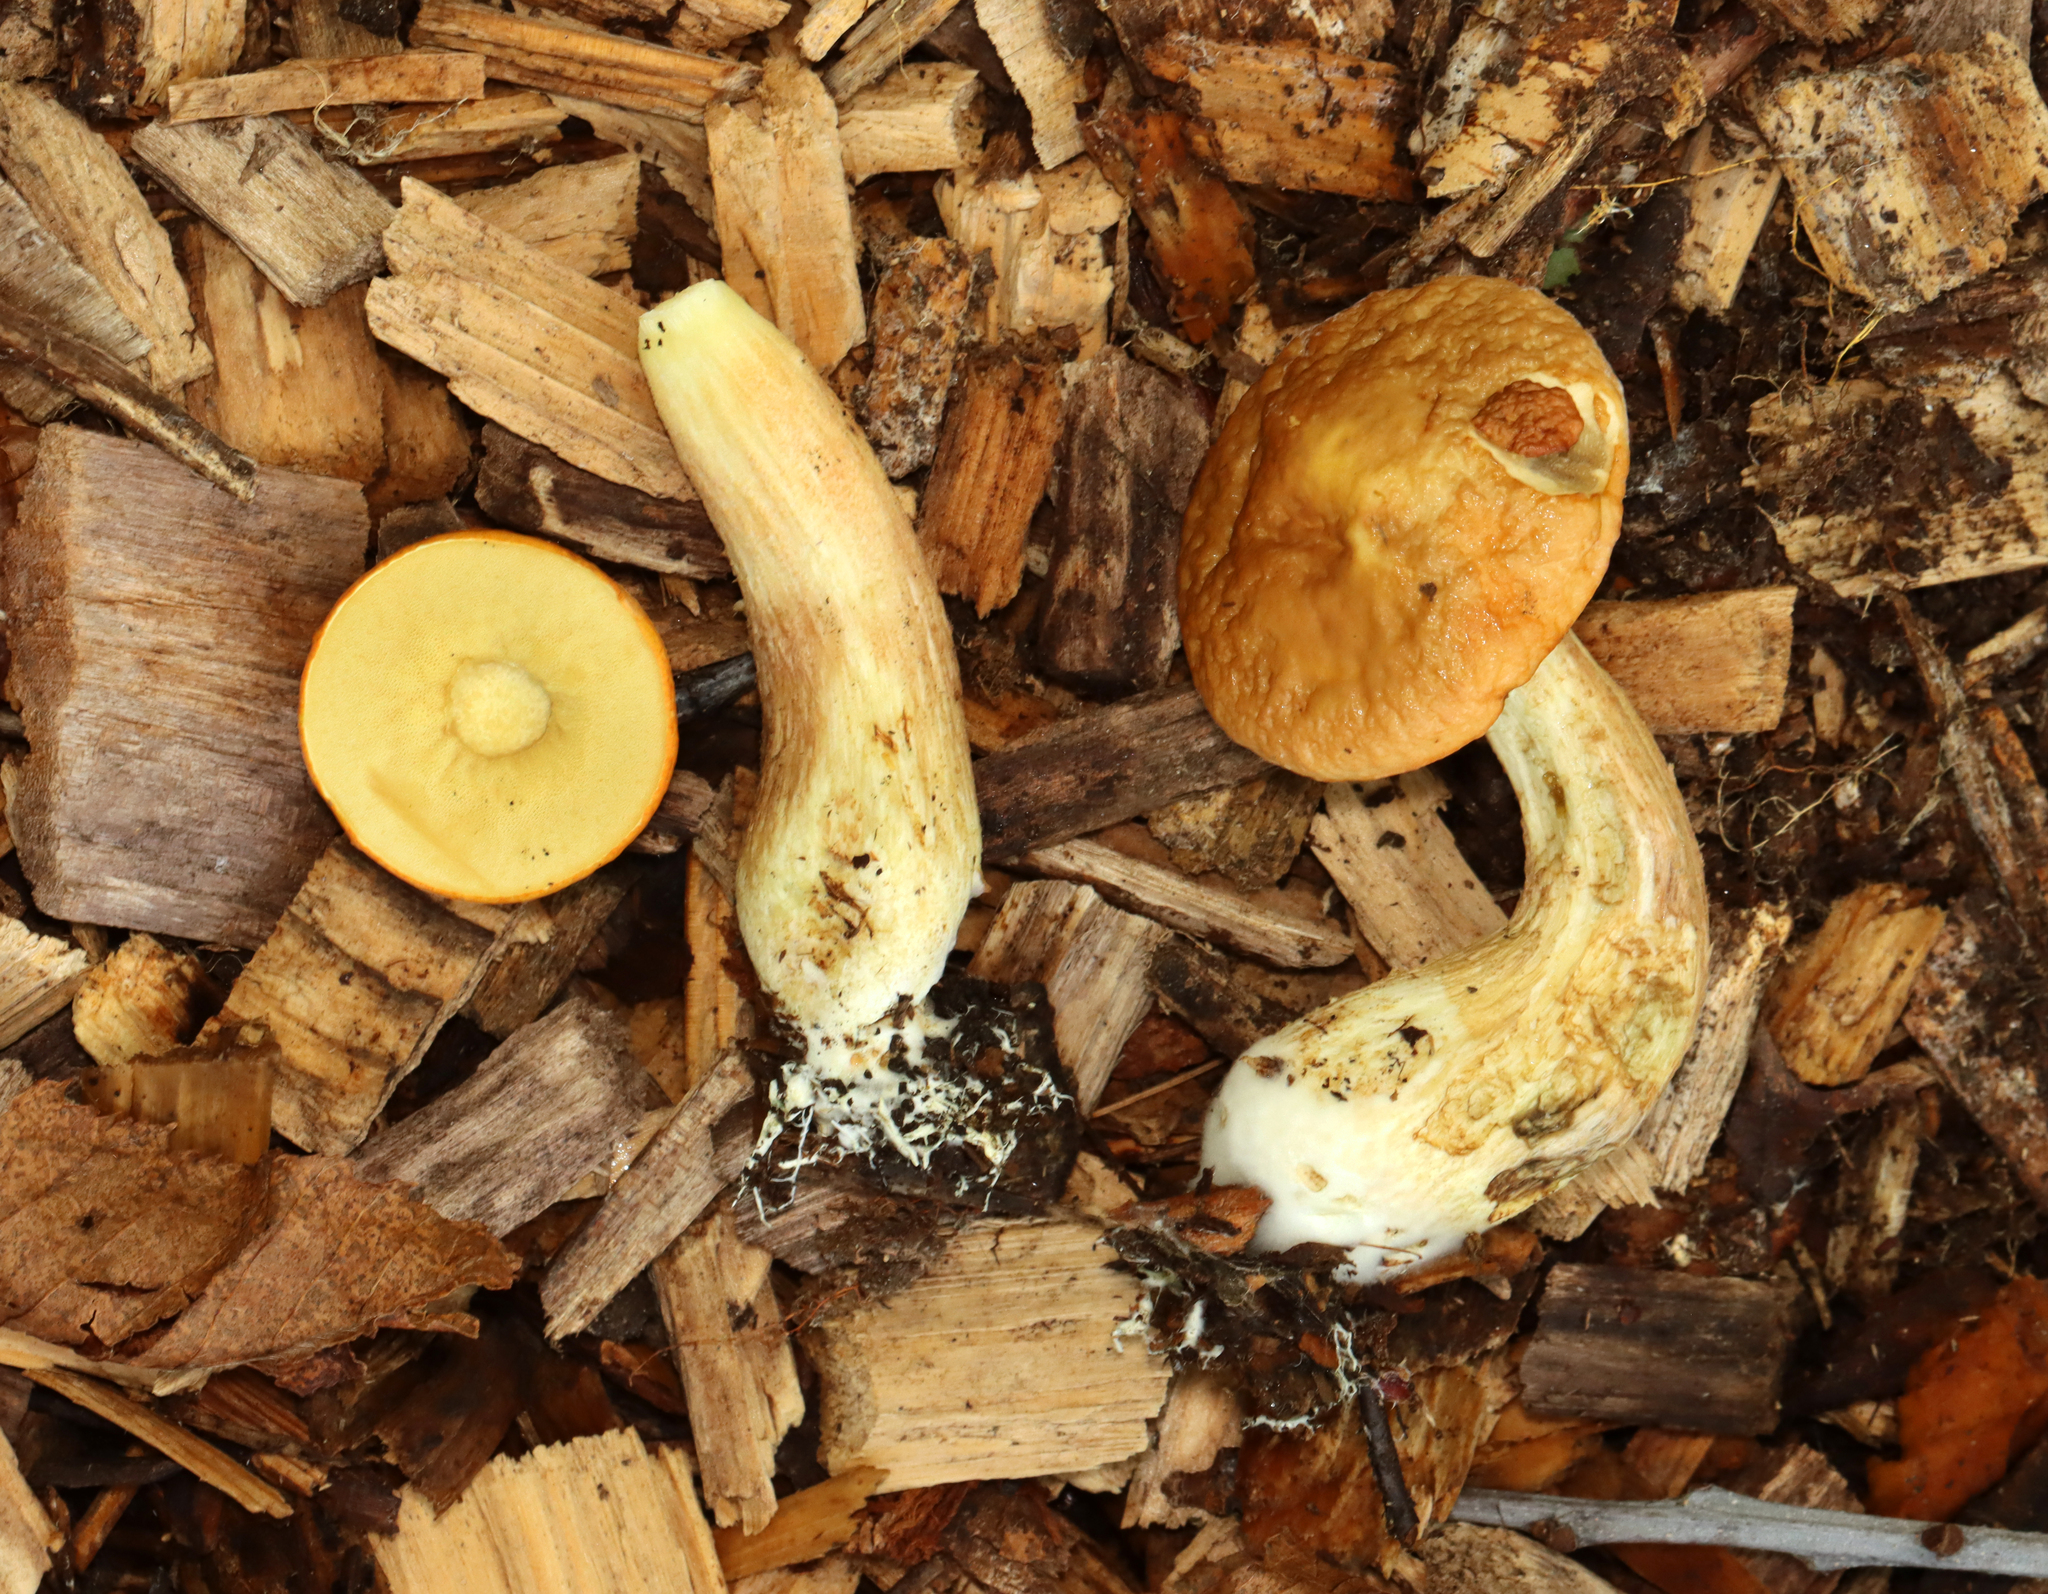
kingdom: Fungi
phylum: Basidiomycota
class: Agaricomycetes
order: Boletales
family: Boletaceae
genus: Leccinum
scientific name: Leccinum longicurvipes
